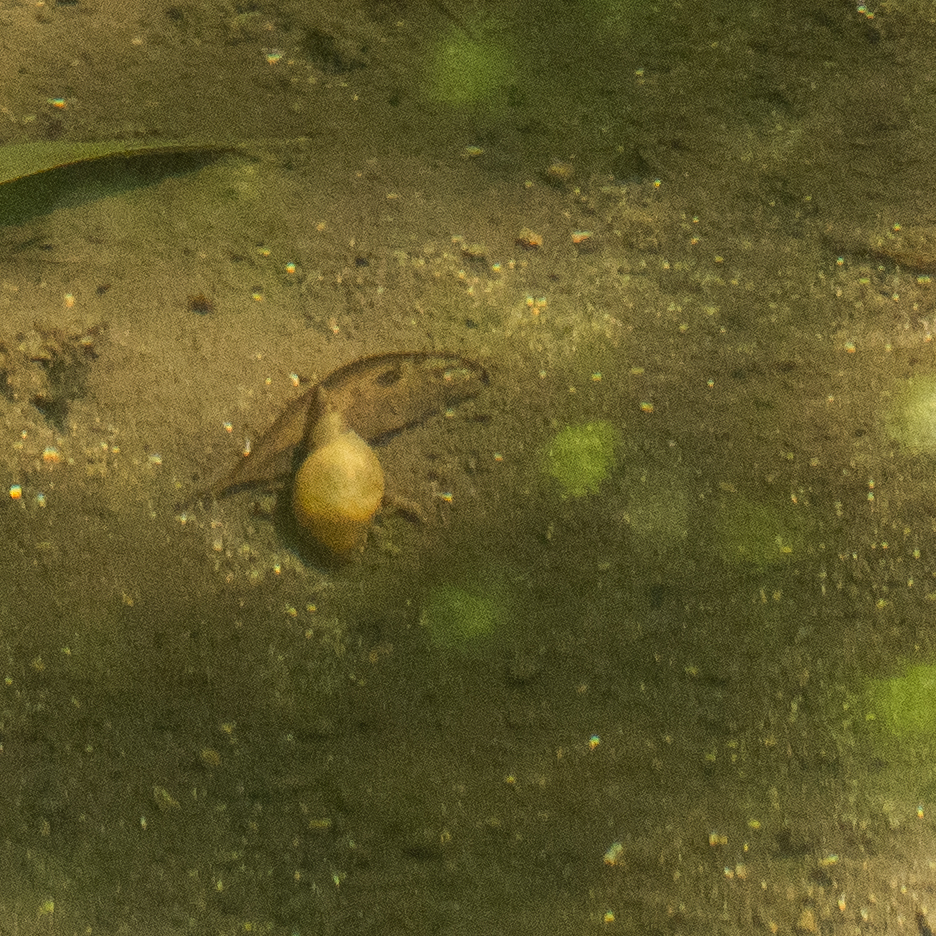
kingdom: Animalia
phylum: Mollusca
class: Gastropoda
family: Lymnaeidae
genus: Lymnaea
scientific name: Lymnaea stagnalis
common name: Great pond snail
